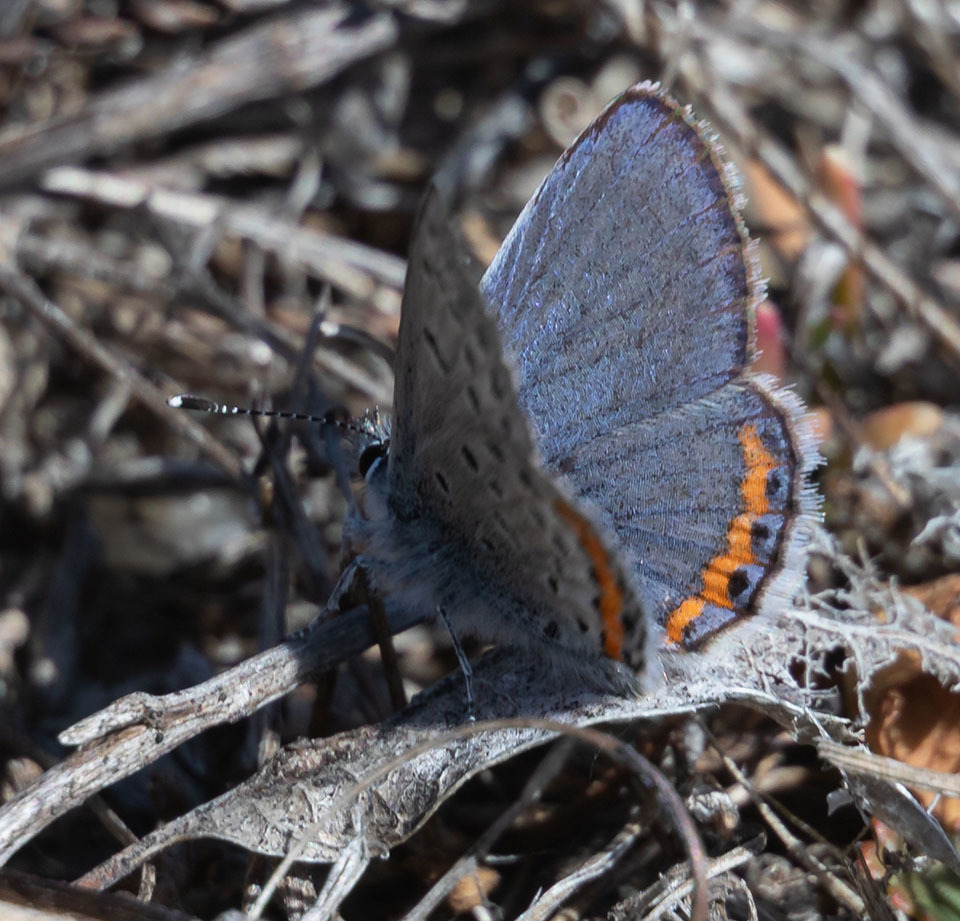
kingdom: Animalia
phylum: Arthropoda
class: Insecta
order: Lepidoptera
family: Lycaenidae
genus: Icaricia
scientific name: Icaricia acmon
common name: Acmon blue
